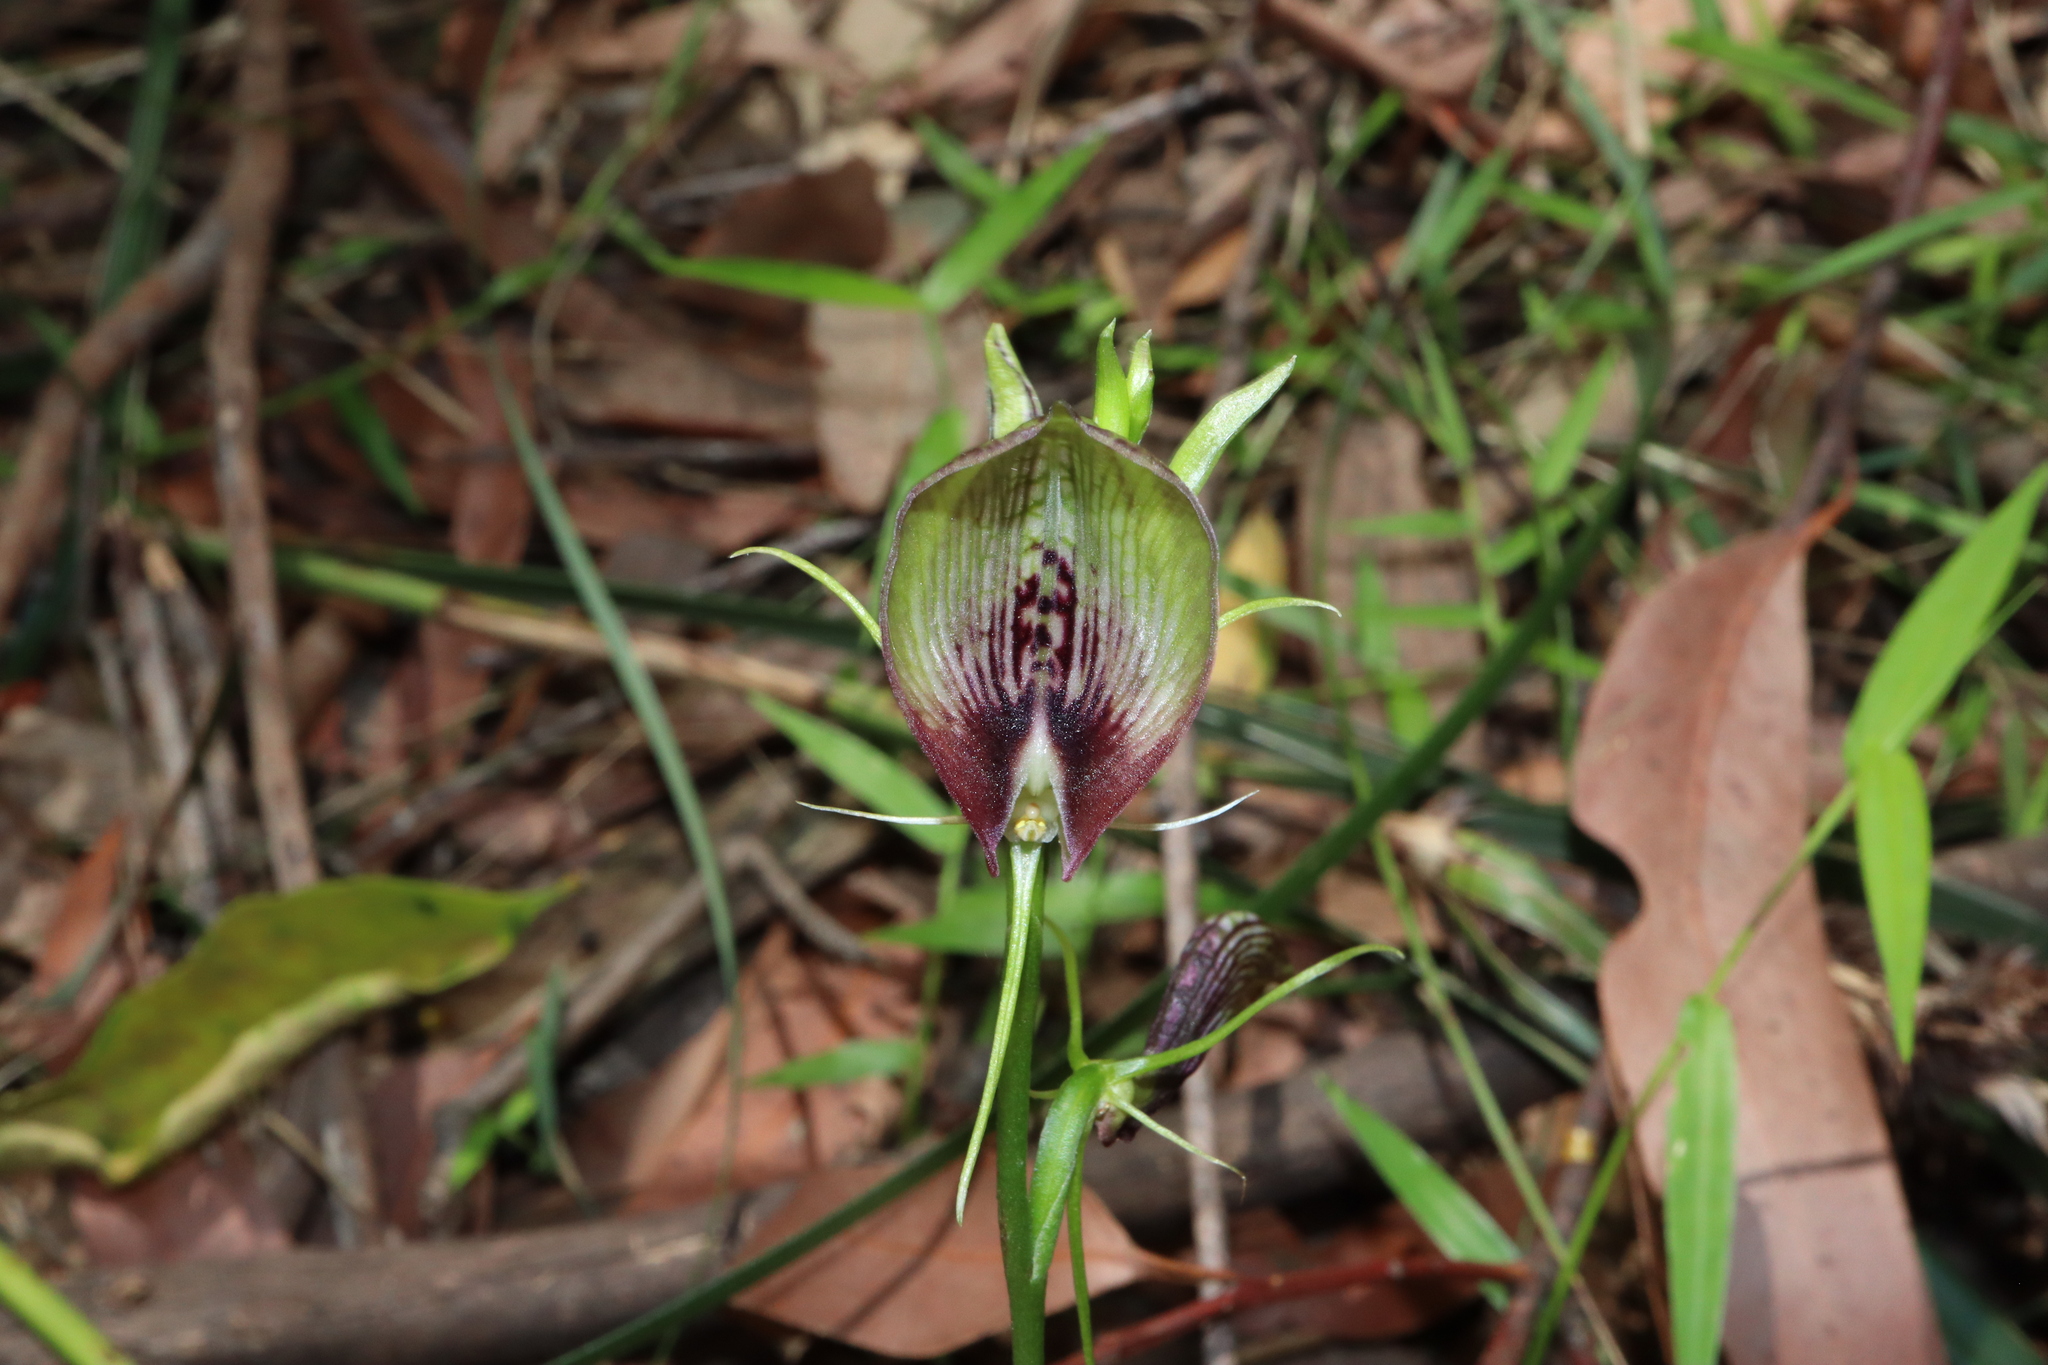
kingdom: Plantae
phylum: Tracheophyta
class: Liliopsida
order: Asparagales
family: Orchidaceae
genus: Cryptostylis
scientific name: Cryptostylis erecta
